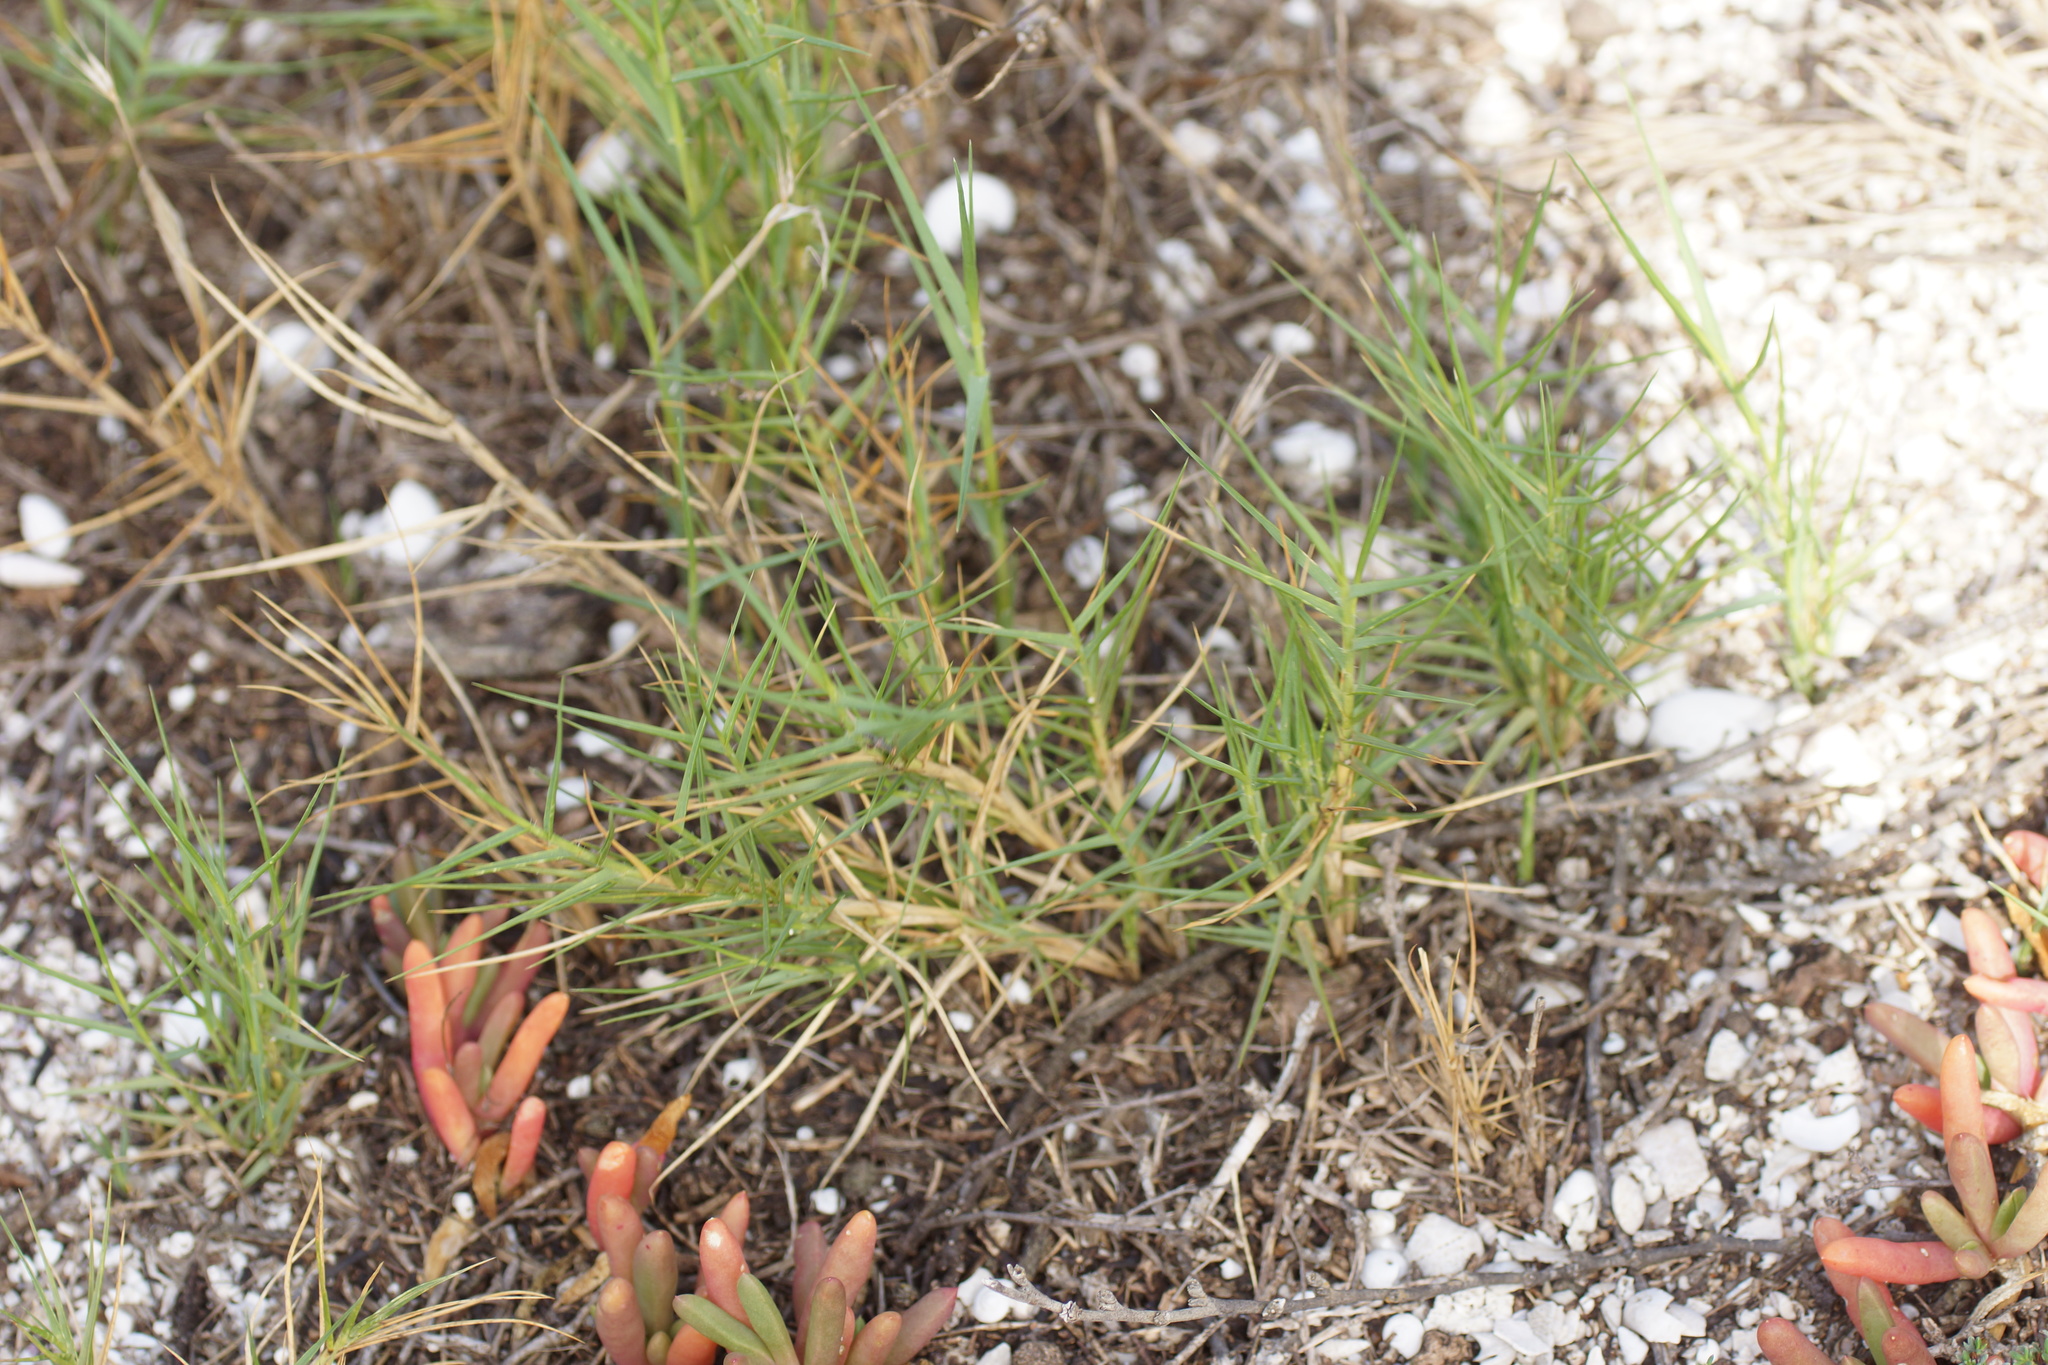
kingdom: Plantae
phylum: Tracheophyta
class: Liliopsida
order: Poales
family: Poaceae
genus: Distichlis
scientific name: Distichlis distichophylla
